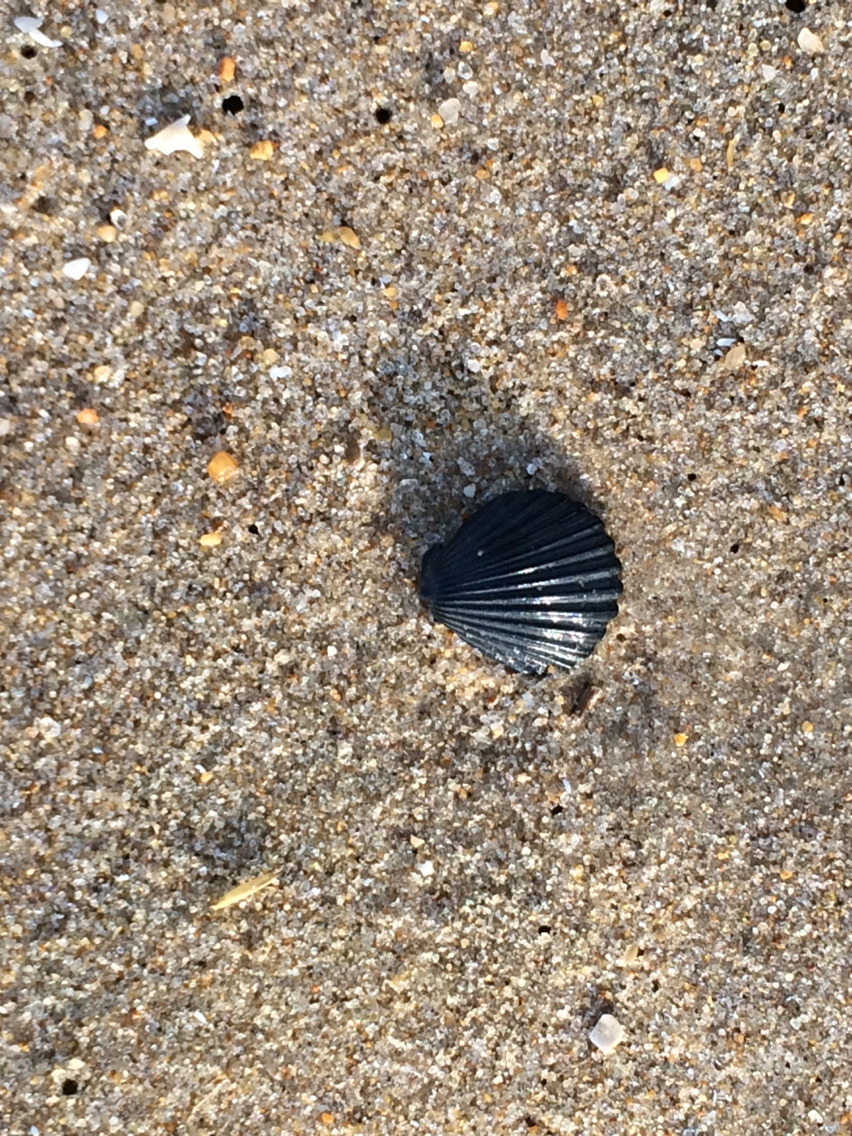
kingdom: Animalia
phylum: Mollusca
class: Bivalvia
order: Pectinida
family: Pectinidae
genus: Argopecten
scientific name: Argopecten irradians
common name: Atlantic bay scallop
